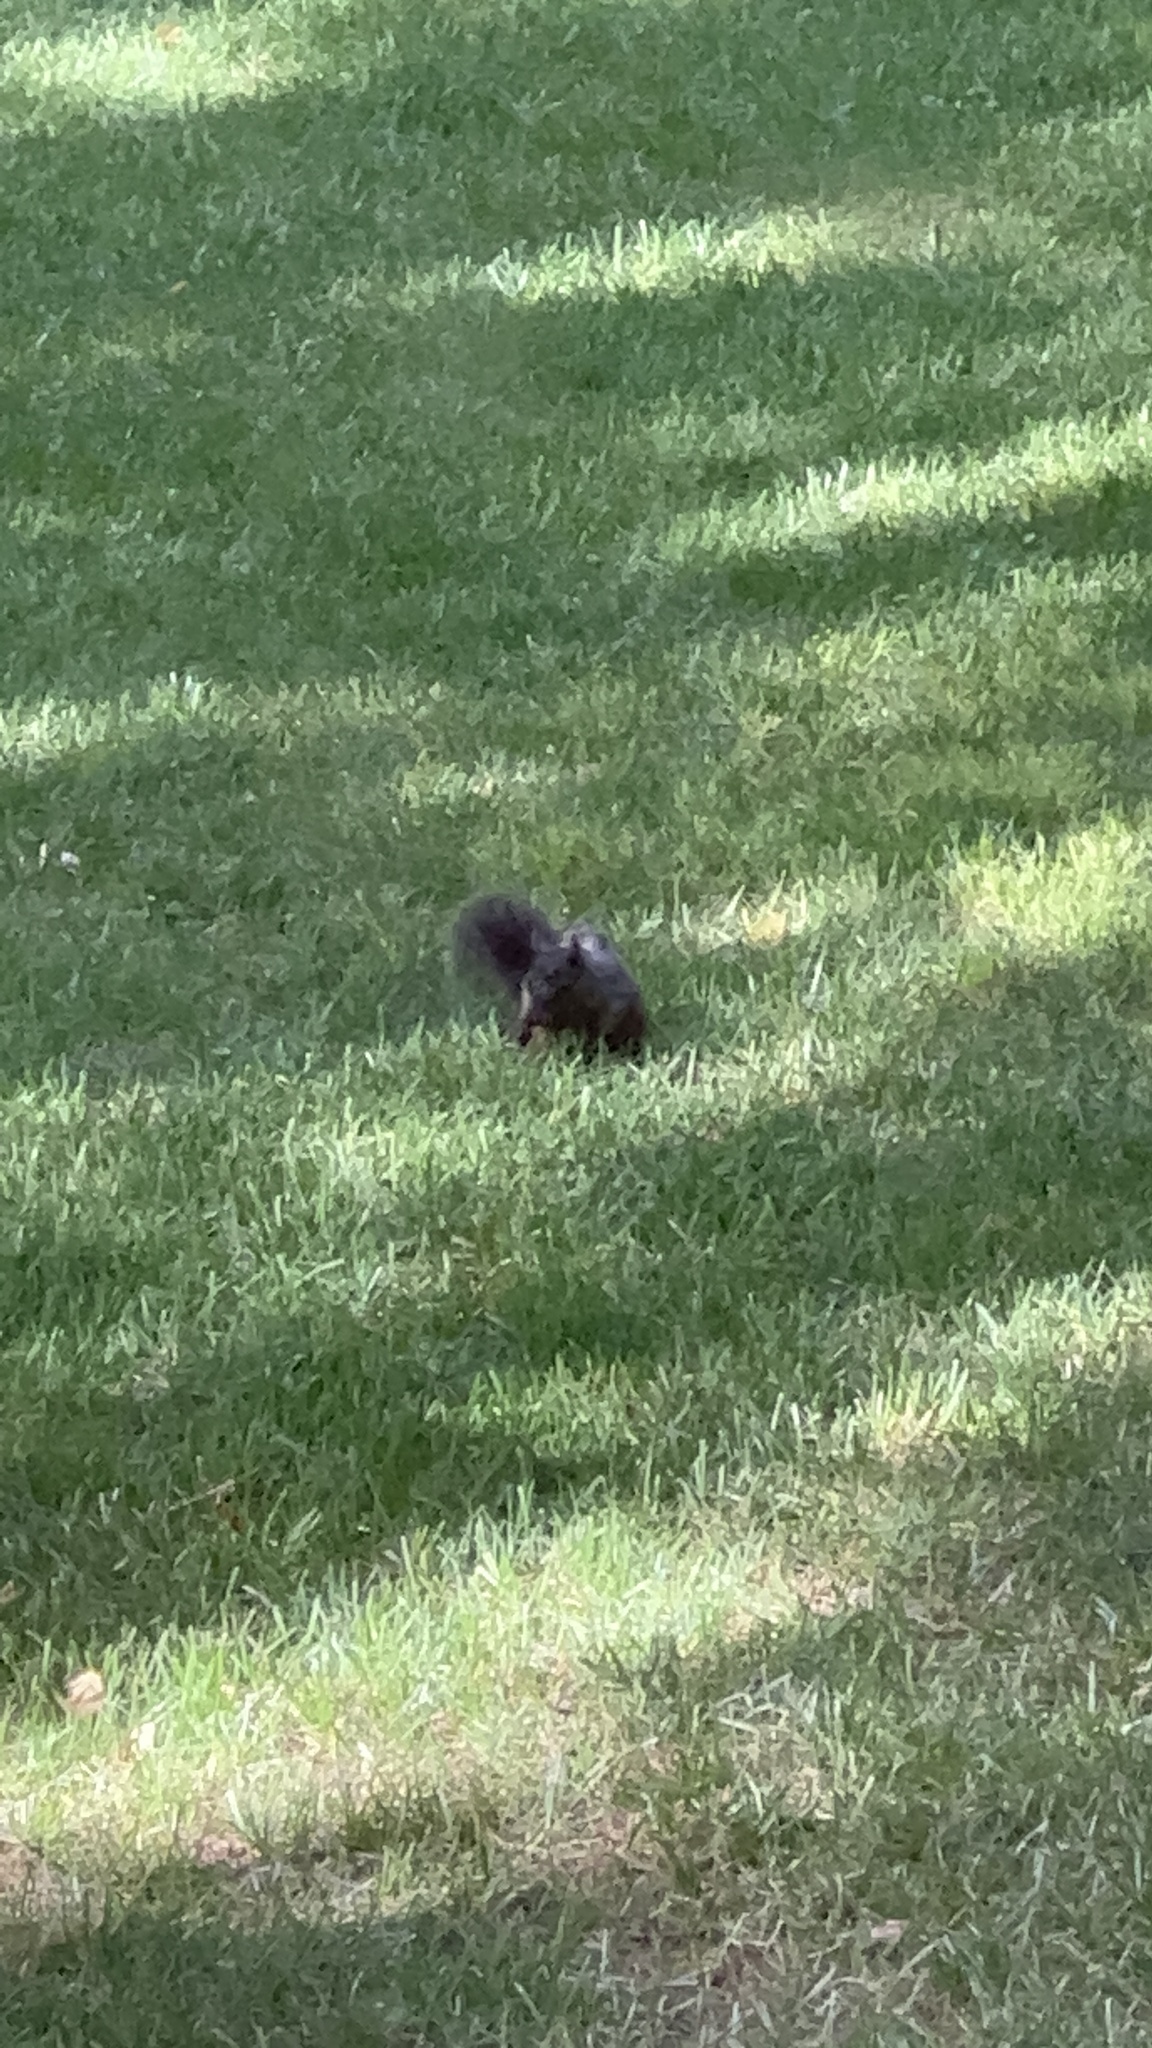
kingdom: Animalia
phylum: Chordata
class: Mammalia
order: Rodentia
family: Sciuridae
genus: Sciurus
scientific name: Sciurus carolinensis
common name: Eastern gray squirrel
